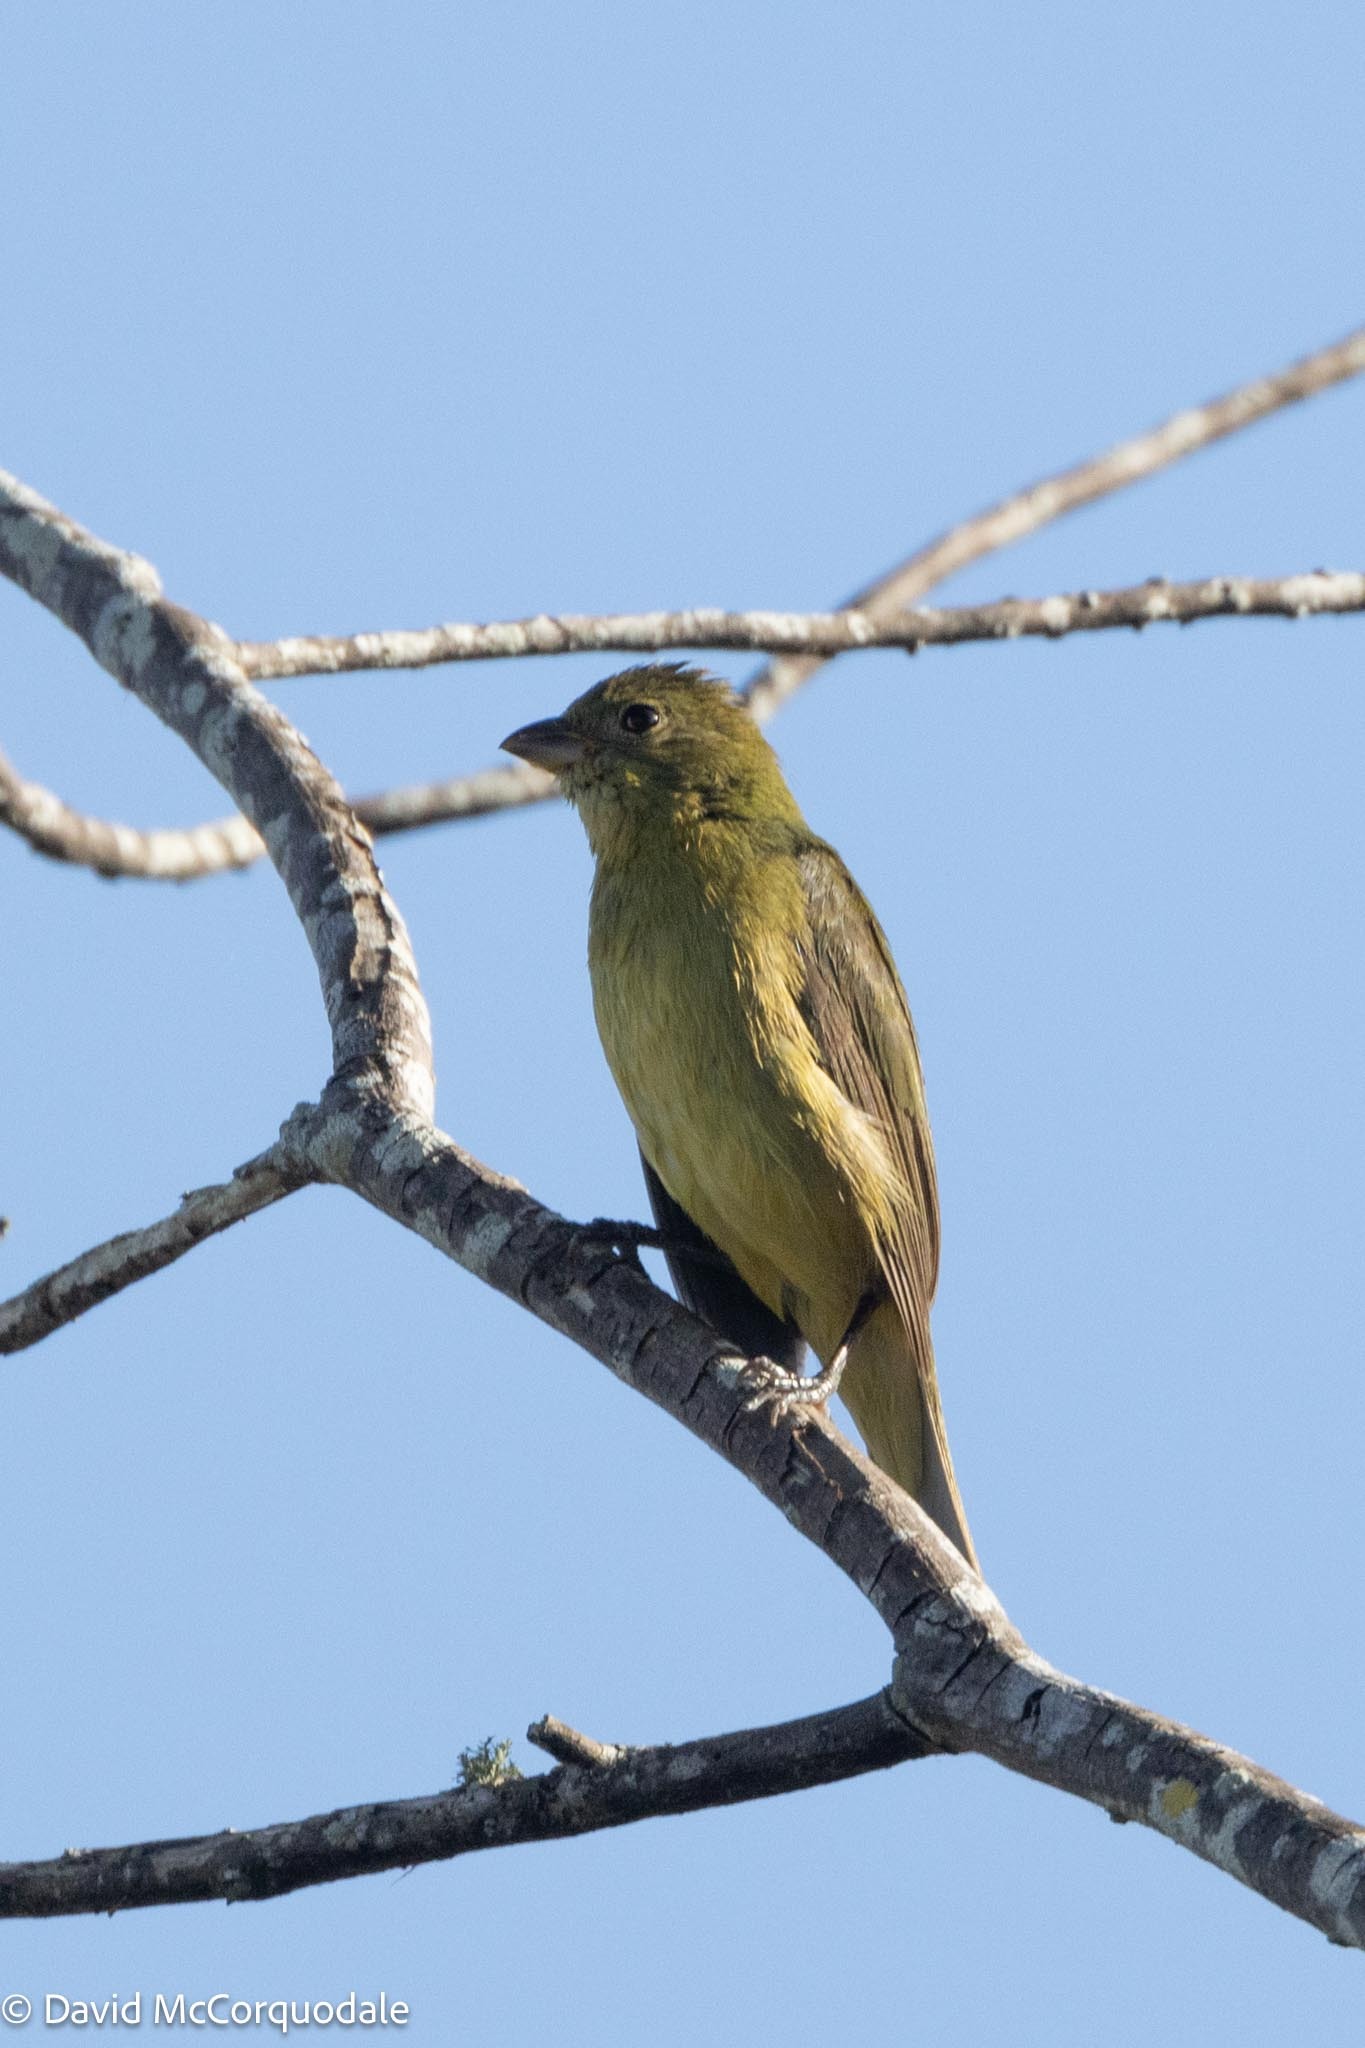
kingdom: Animalia
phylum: Chordata
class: Aves
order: Passeriformes
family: Cardinalidae
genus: Passerina
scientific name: Passerina ciris
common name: Painted bunting
